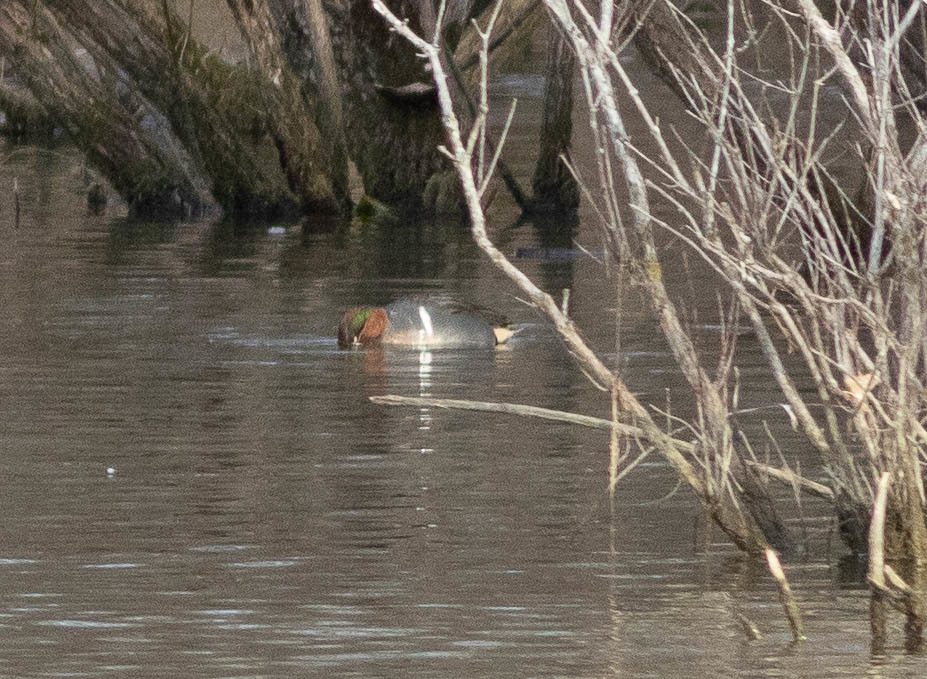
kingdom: Animalia
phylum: Chordata
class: Aves
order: Anseriformes
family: Anatidae
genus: Anas
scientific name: Anas crecca
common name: Eurasian teal
